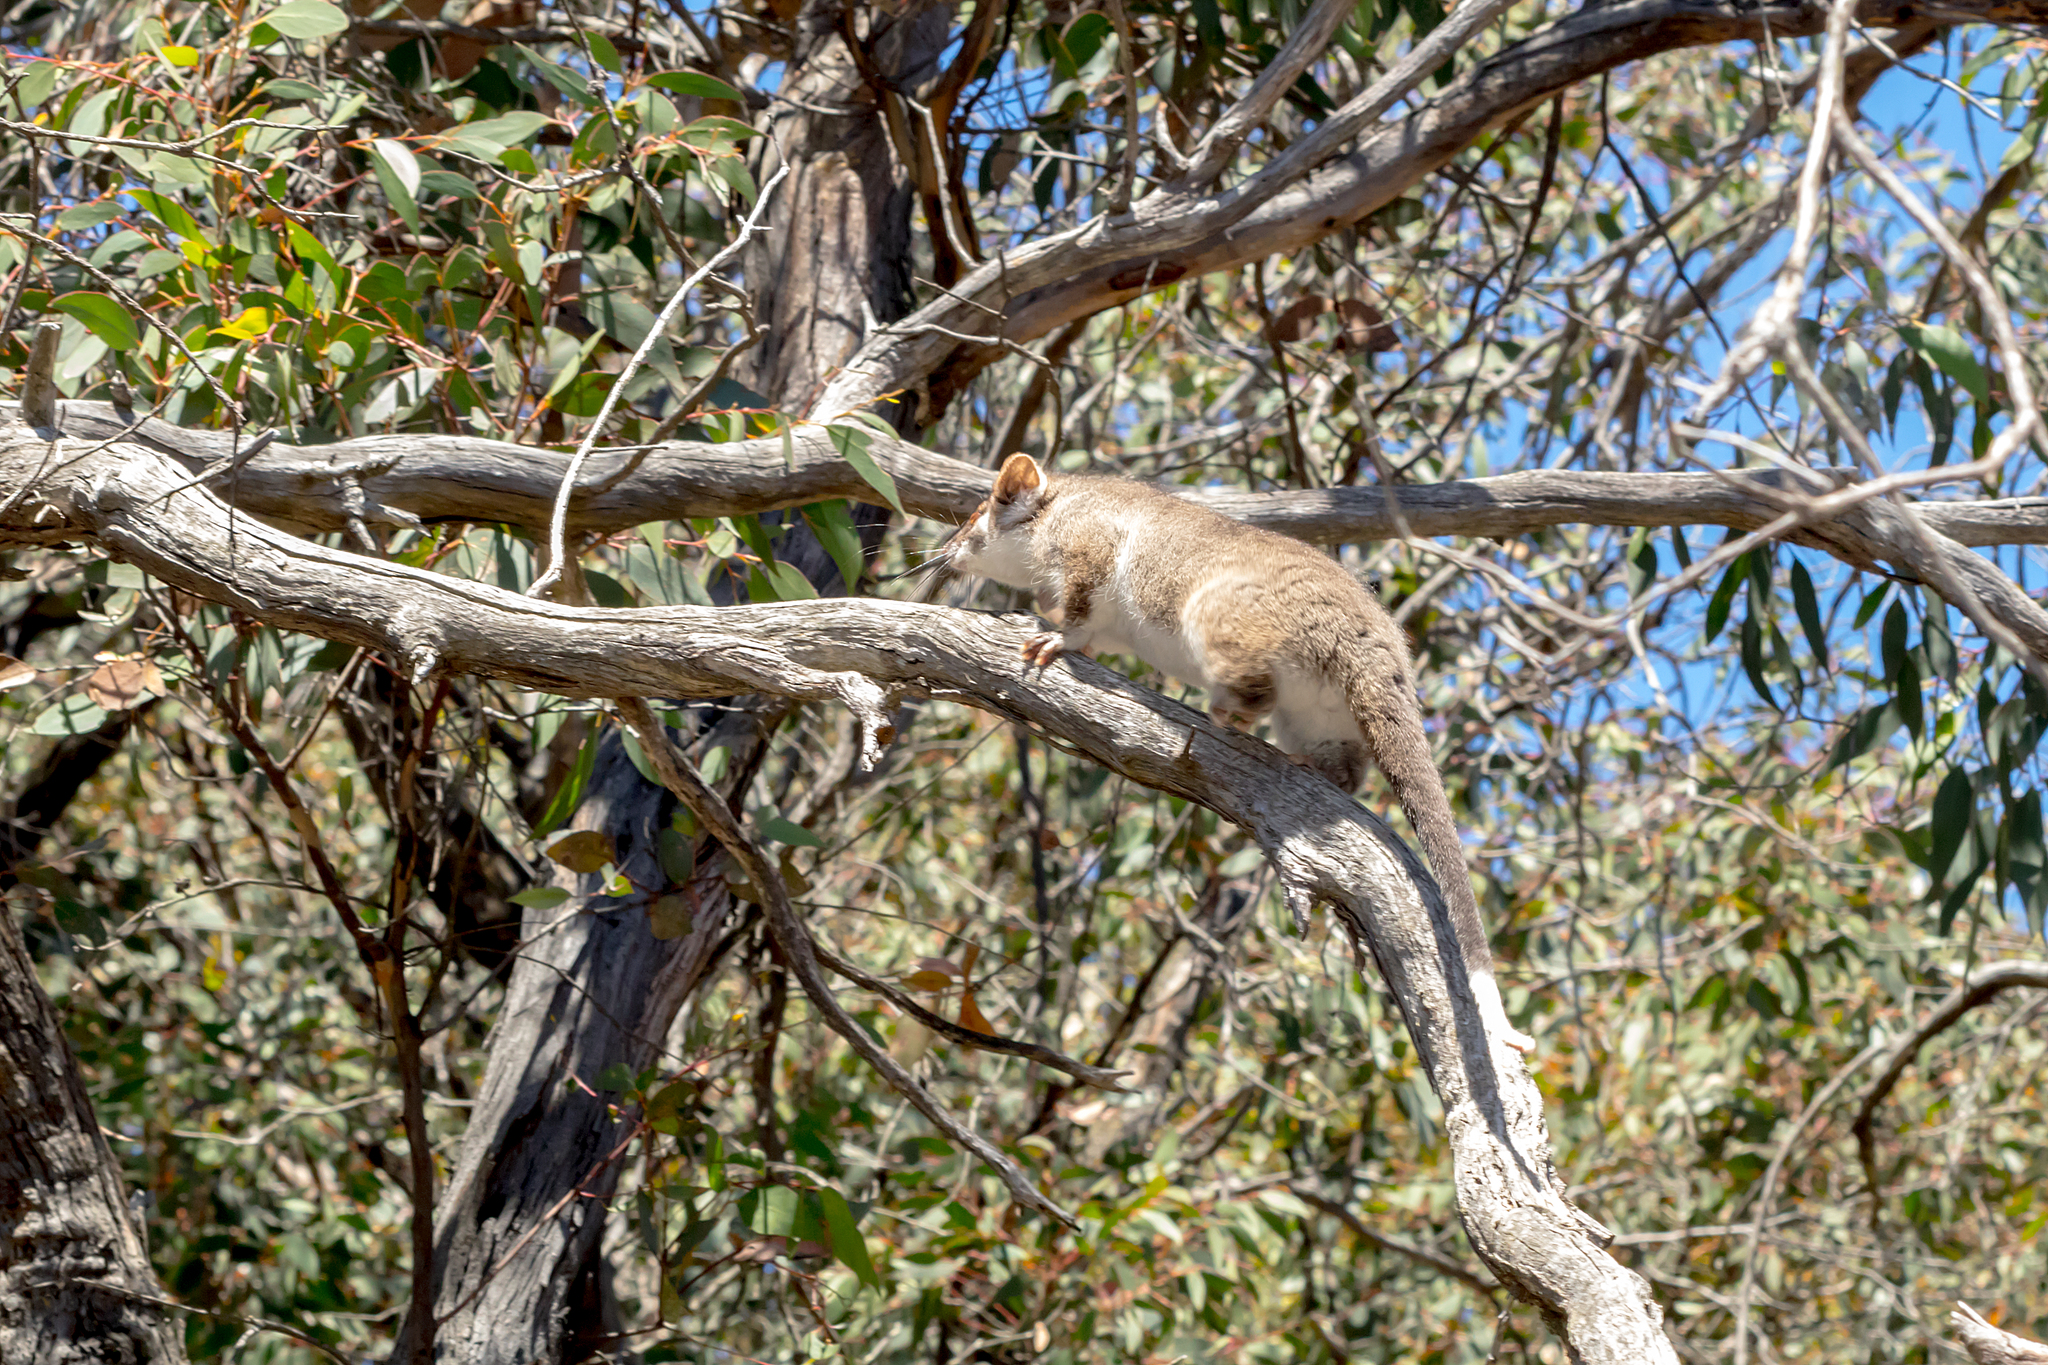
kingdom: Animalia
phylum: Chordata
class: Mammalia
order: Diprotodontia
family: Pseudocheiridae
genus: Pseudocheirus
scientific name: Pseudocheirus peregrinus
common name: Common ringtail possum
